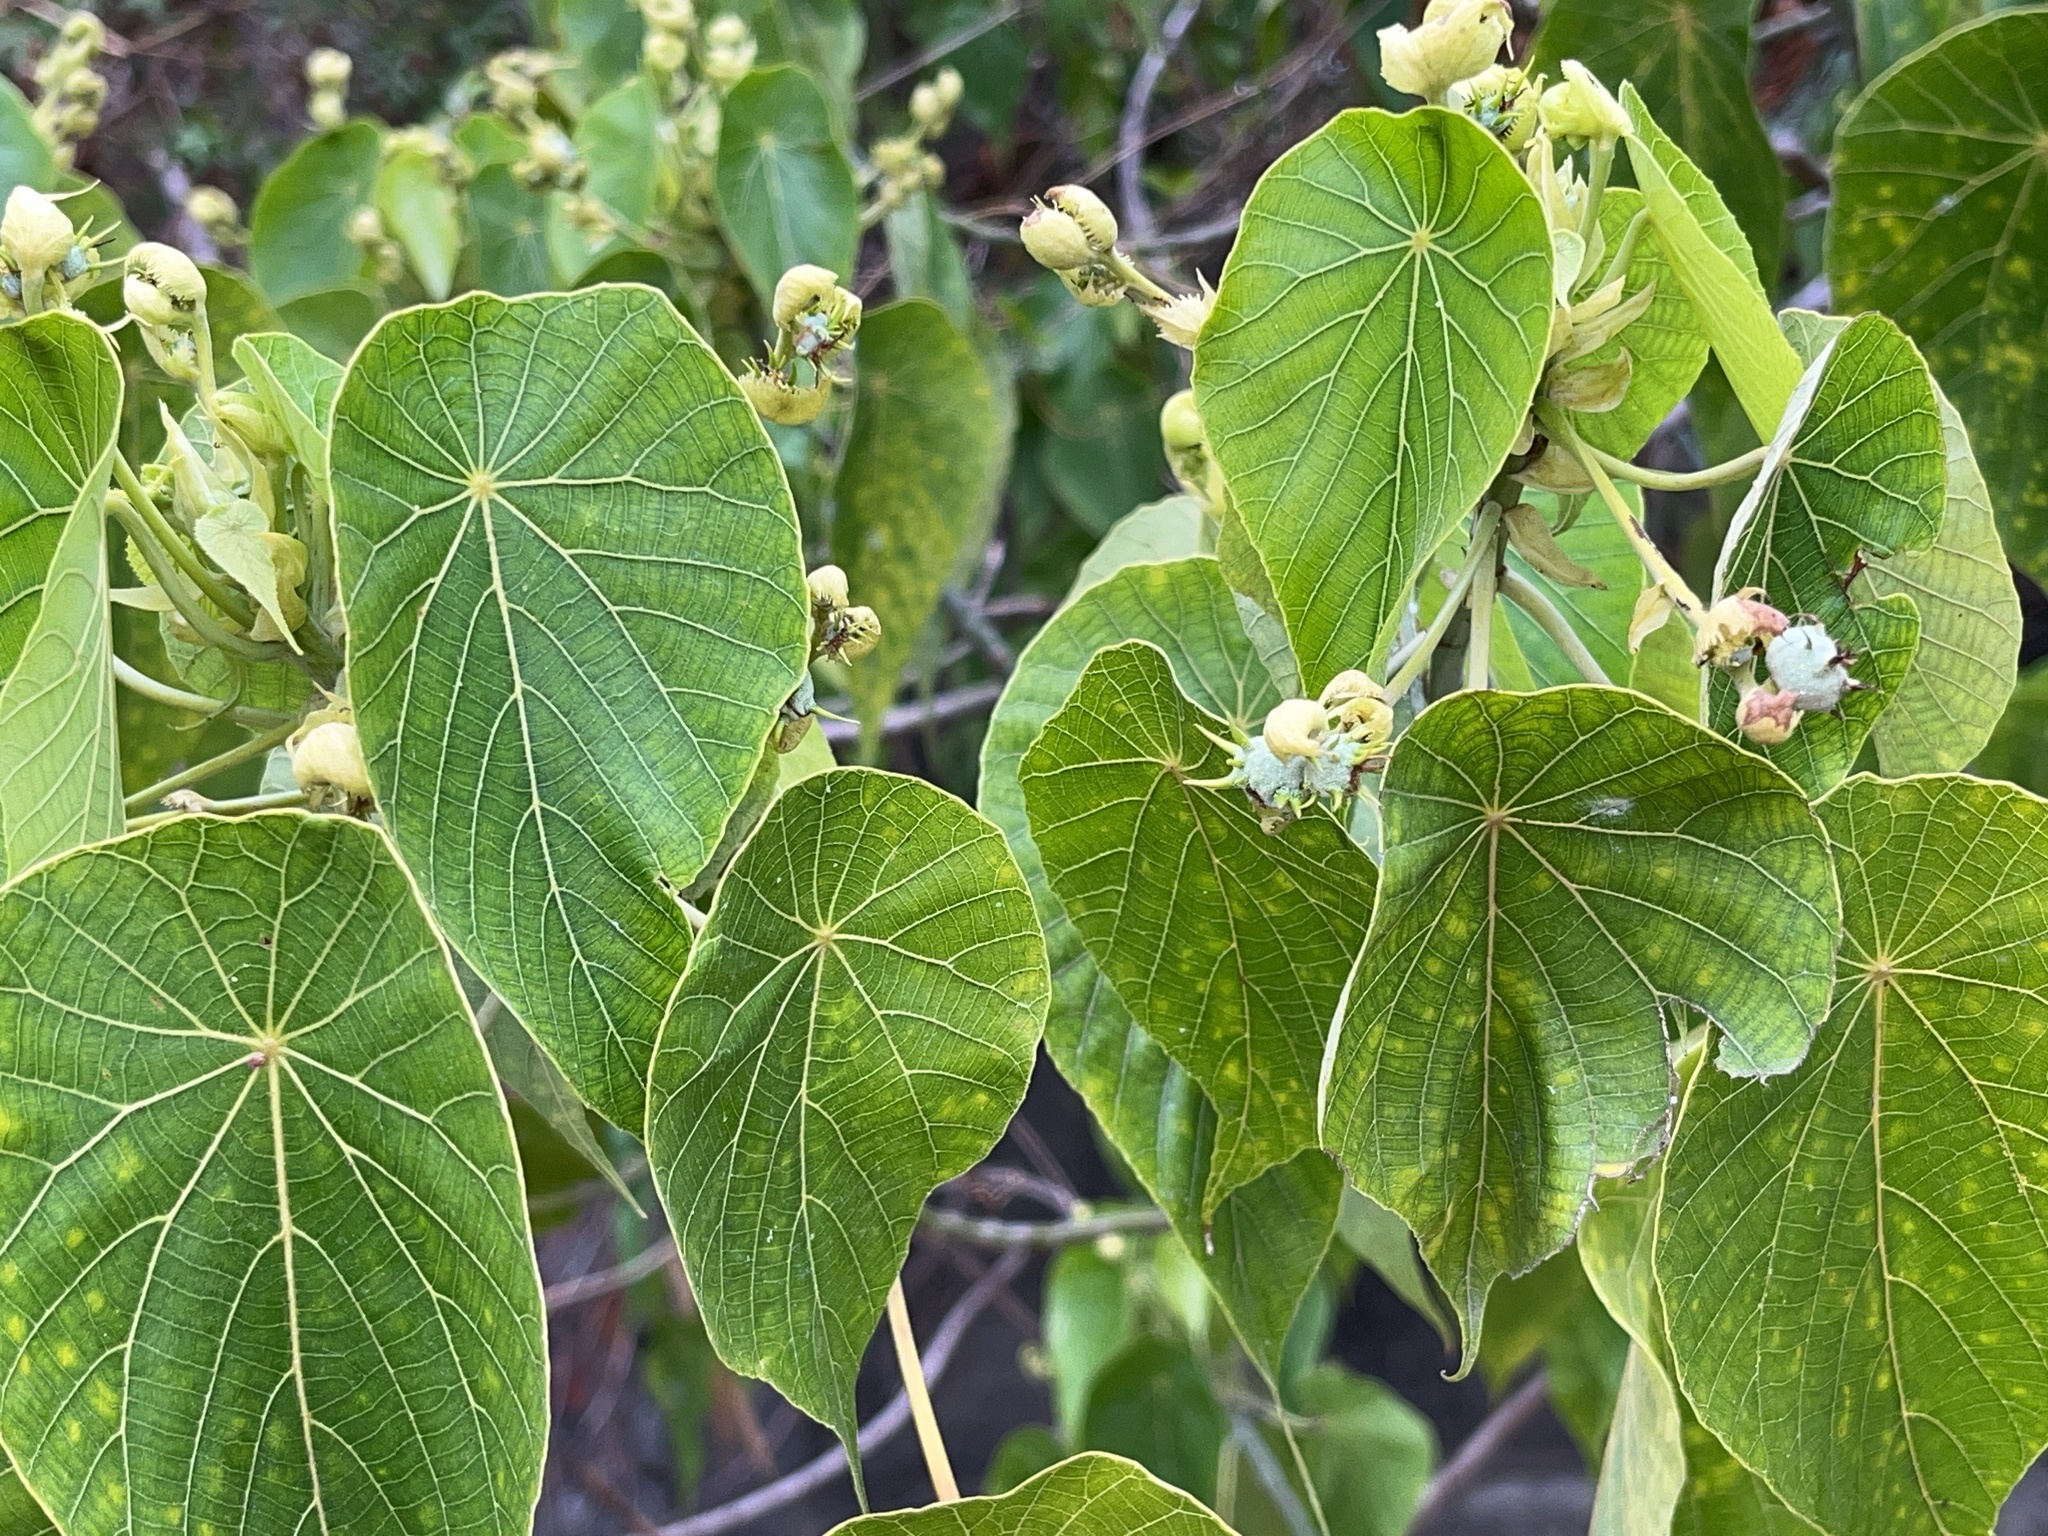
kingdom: Plantae
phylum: Tracheophyta
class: Magnoliopsida
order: Malpighiales
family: Euphorbiaceae
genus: Macaranga
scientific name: Macaranga tanarius
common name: Parasol leaf tree
